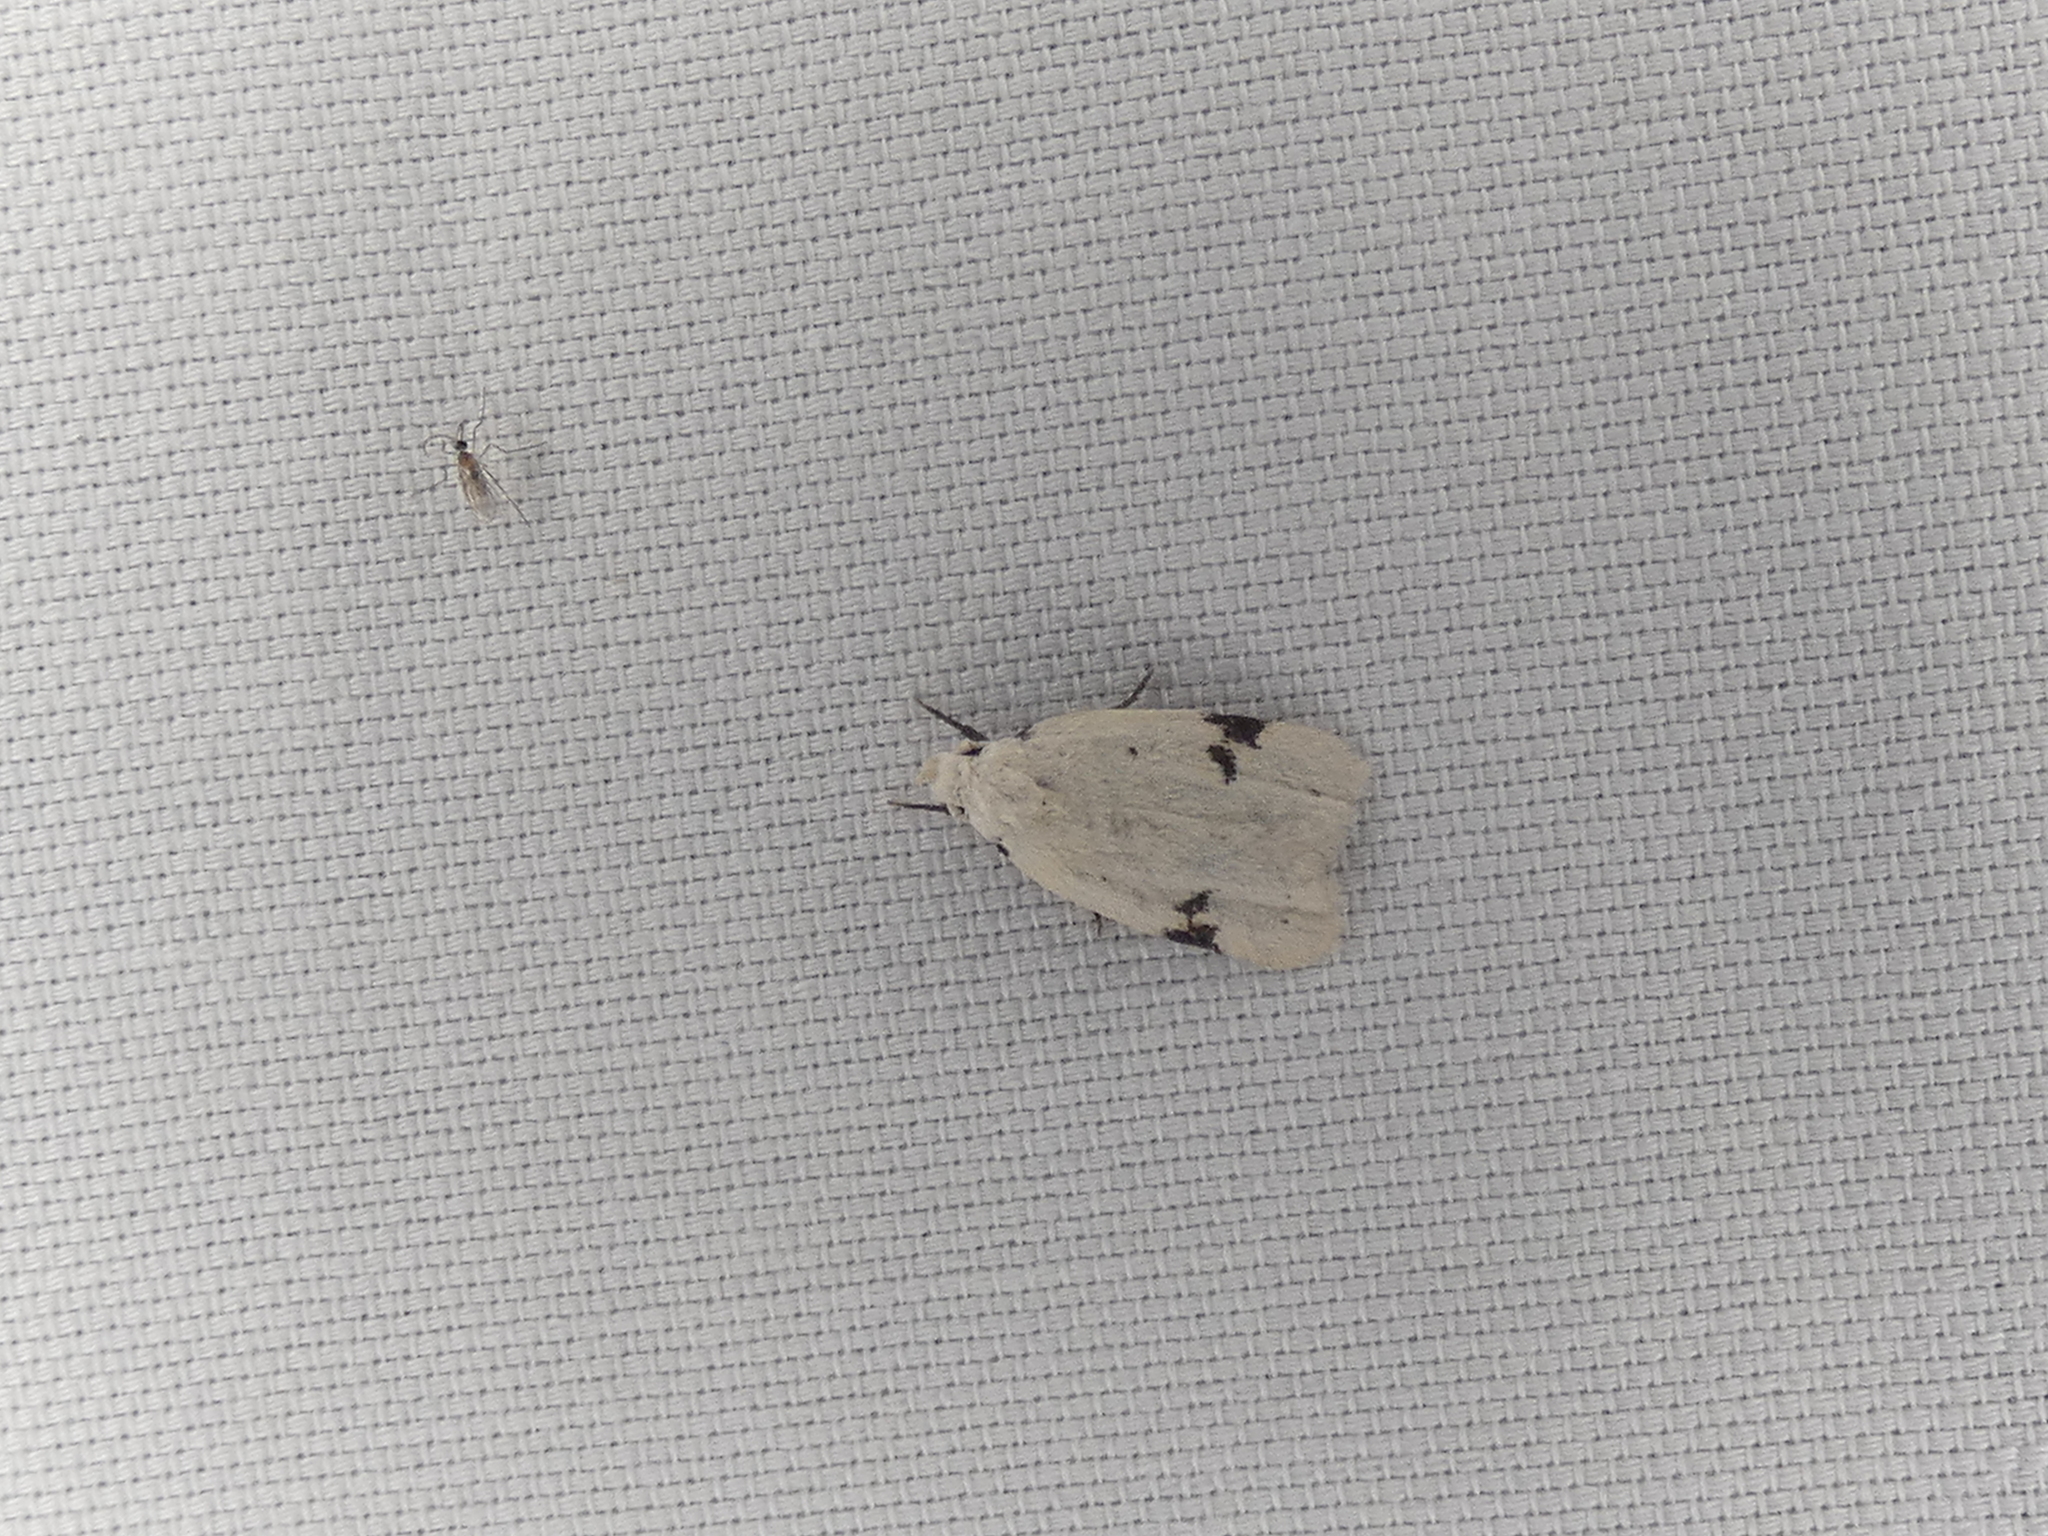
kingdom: Animalia
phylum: Arthropoda
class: Insecta
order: Lepidoptera
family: Oecophoridae
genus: Inga
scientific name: Inga sparsiciliella
